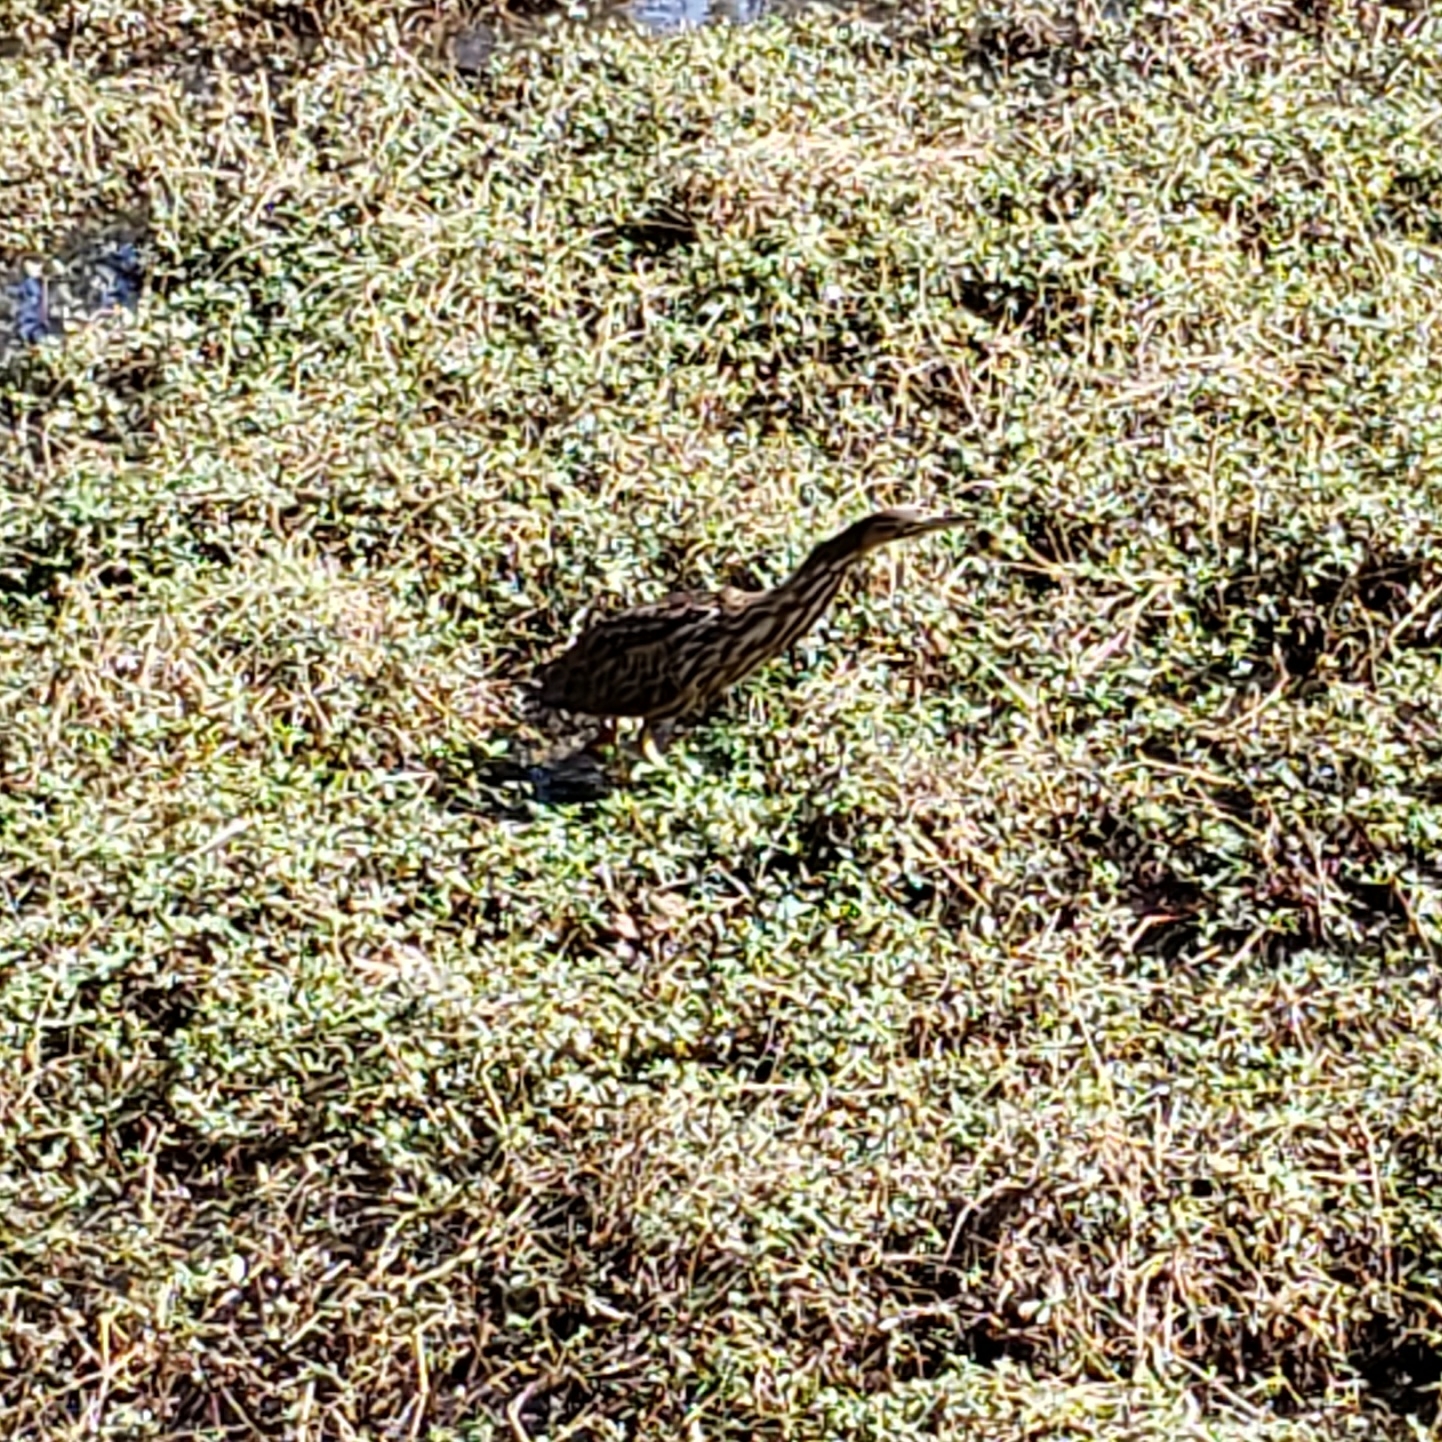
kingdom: Animalia
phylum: Chordata
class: Aves
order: Pelecaniformes
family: Ardeidae
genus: Botaurus
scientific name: Botaurus lentiginosus
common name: American bittern
